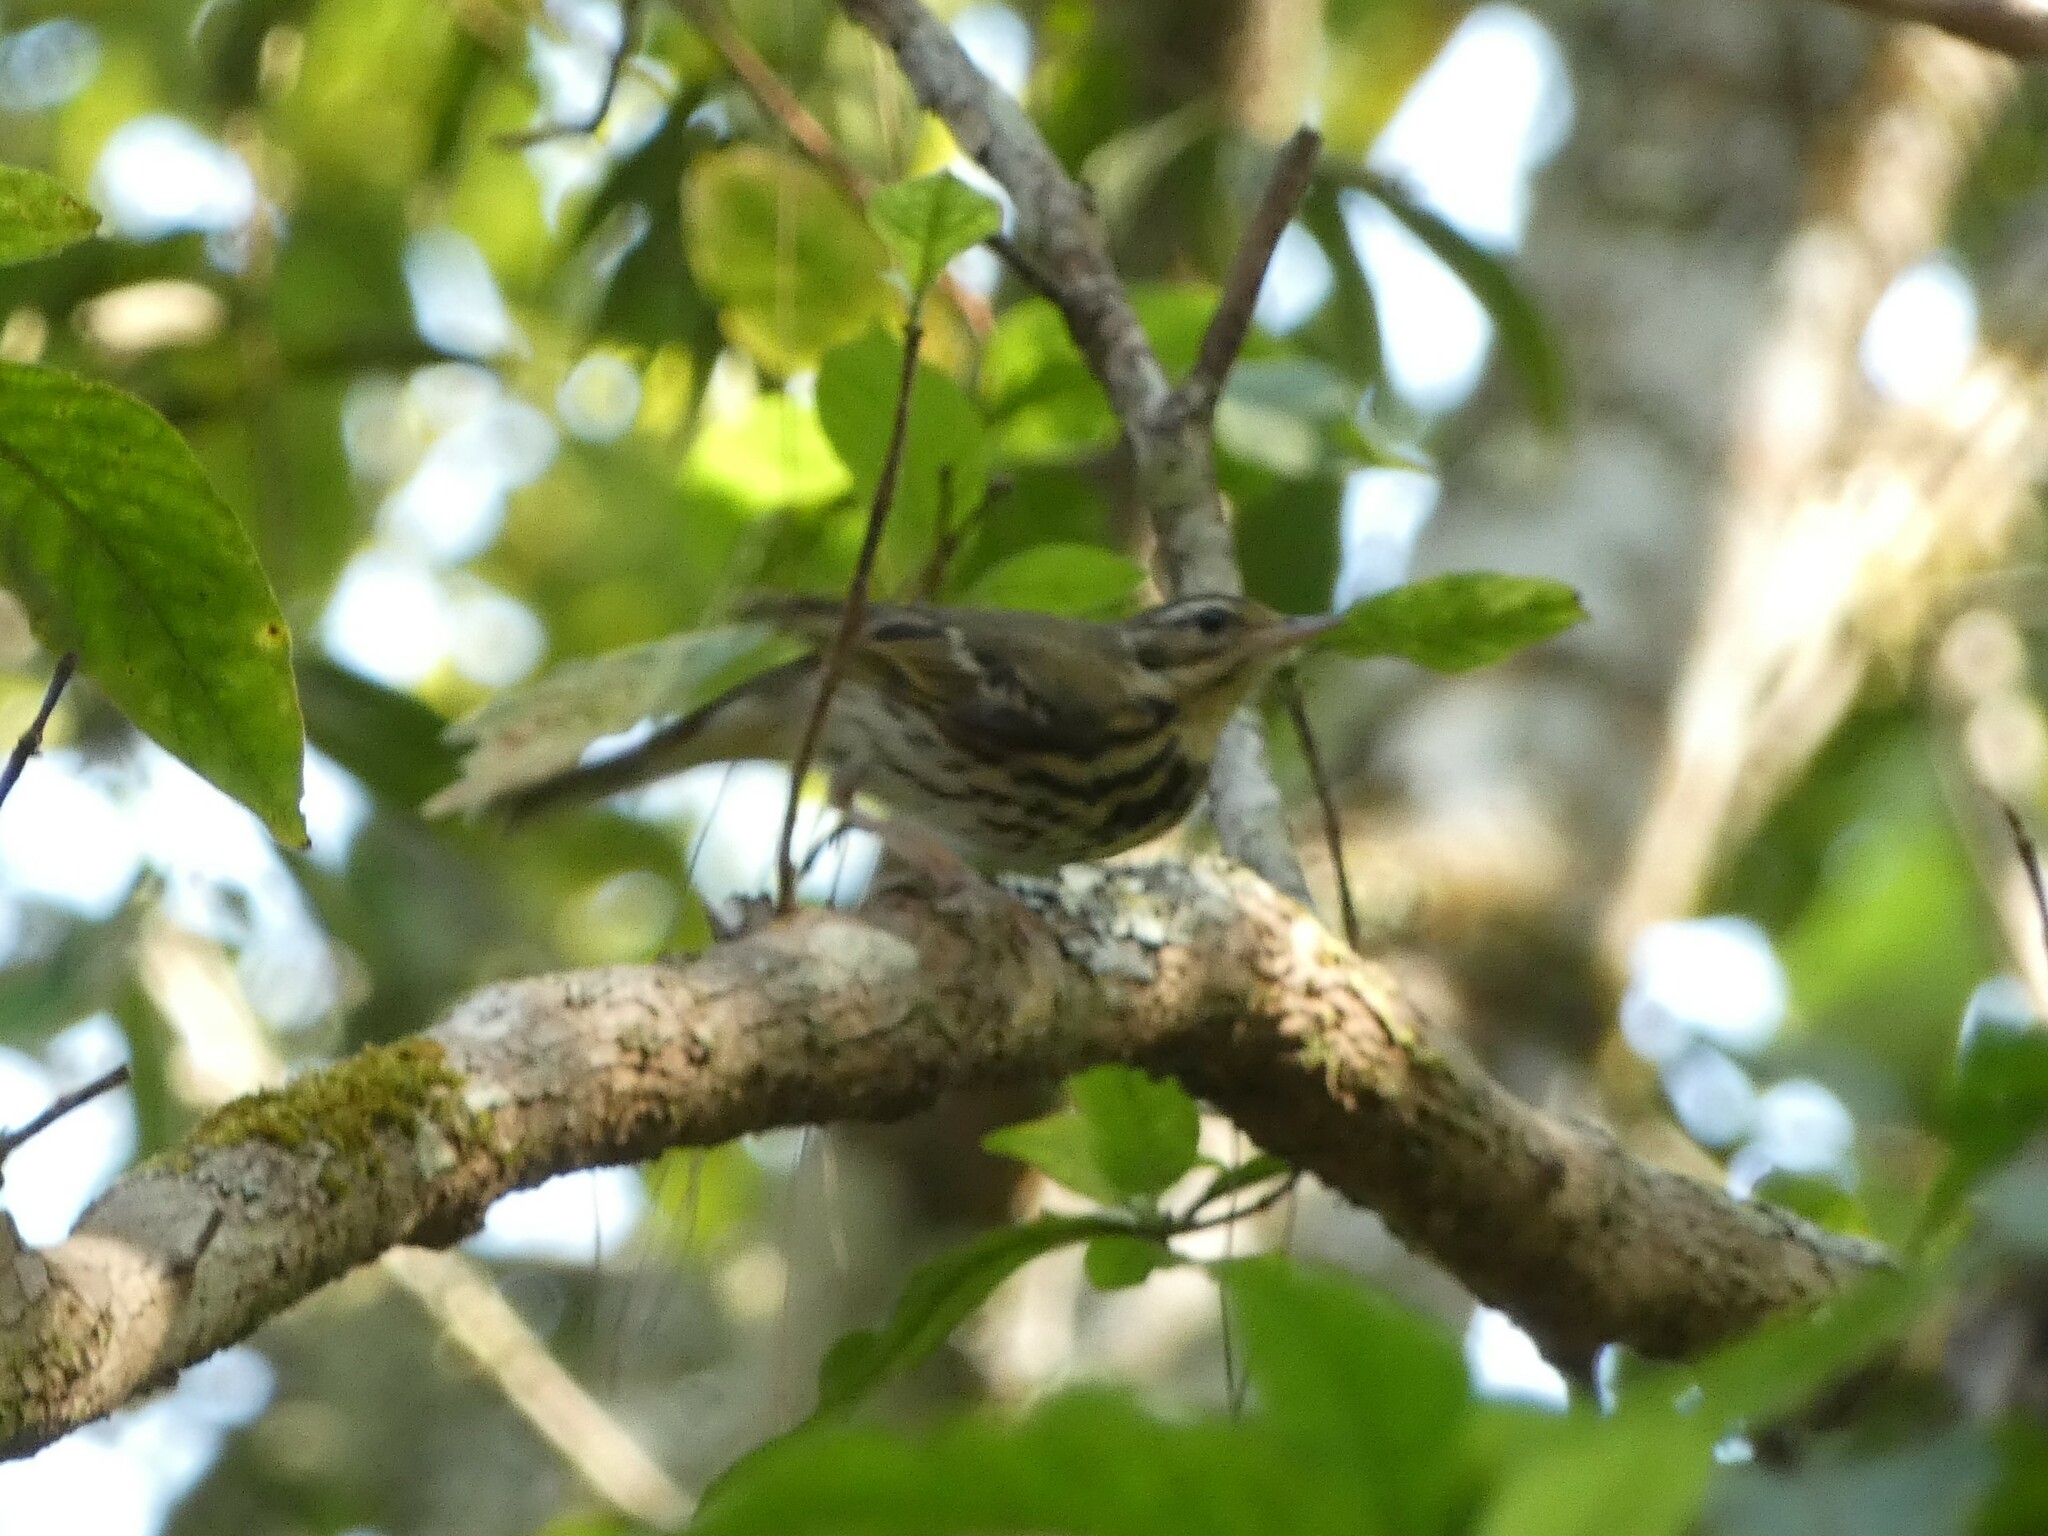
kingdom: Animalia
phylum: Chordata
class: Aves
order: Passeriformes
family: Motacillidae
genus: Anthus
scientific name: Anthus hodgsoni
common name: Olive-backed pipit
